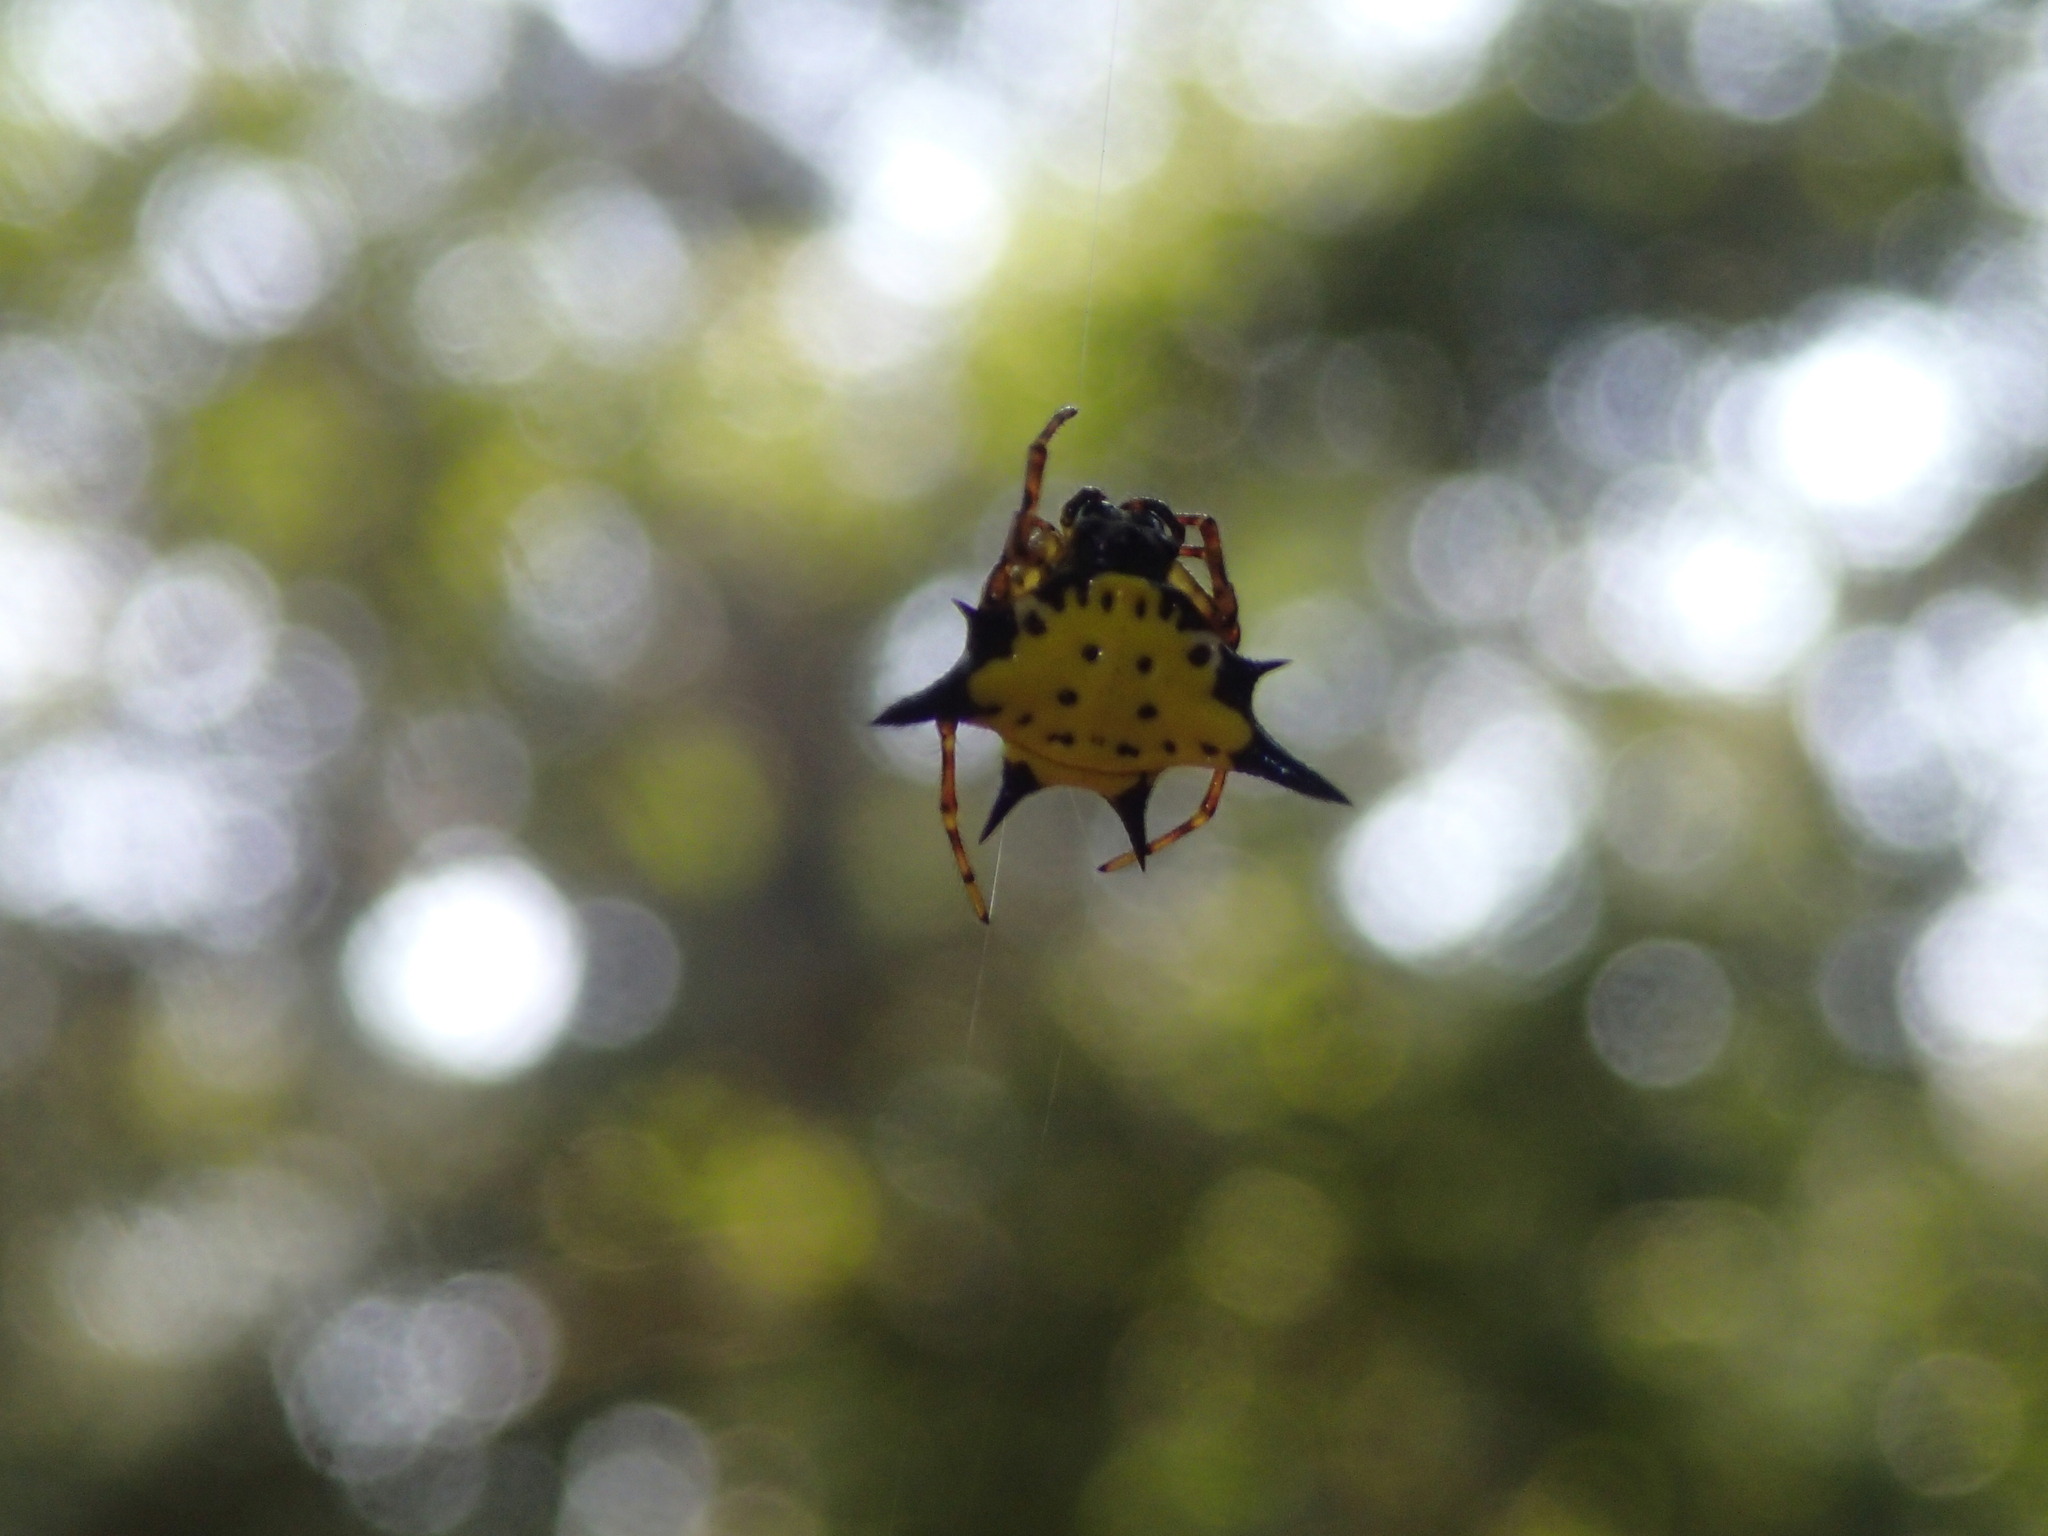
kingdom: Animalia
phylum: Arthropoda
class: Arachnida
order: Araneae
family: Araneidae
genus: Macracantha
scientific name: Macracantha hasselti
